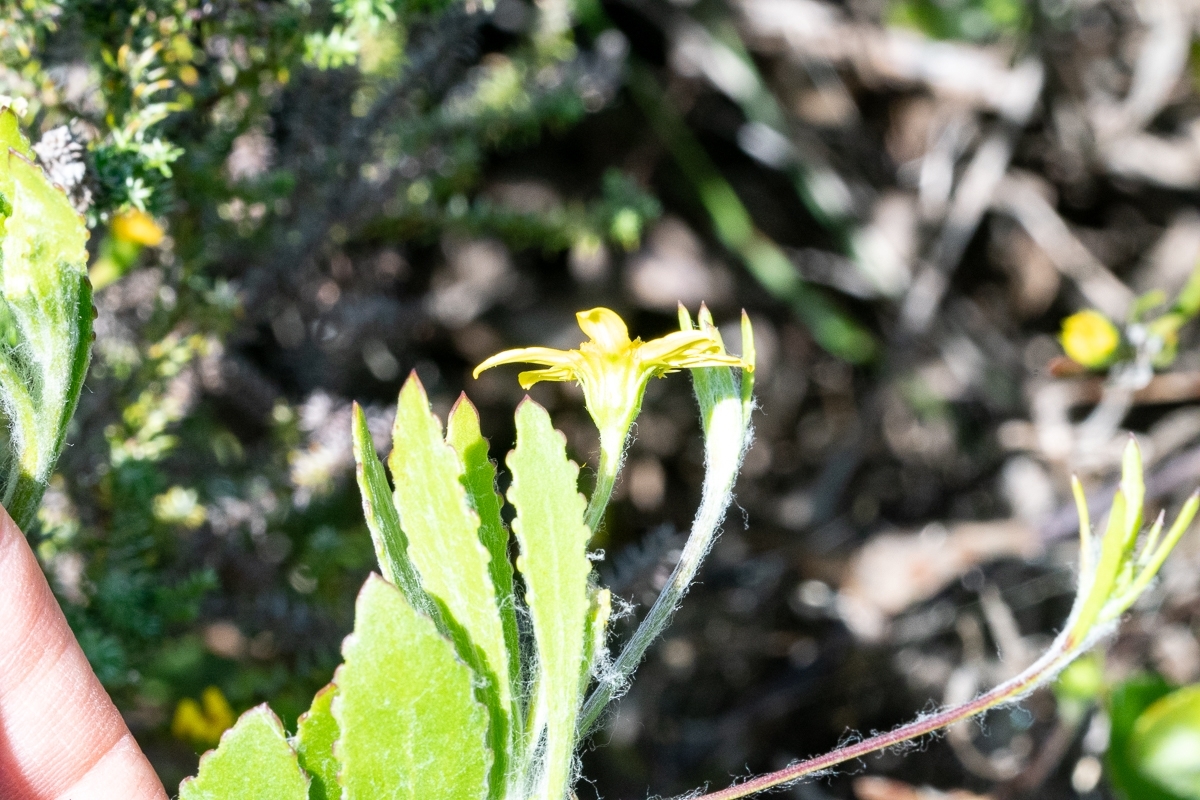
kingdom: Plantae
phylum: Tracheophyta
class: Magnoliopsida
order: Asterales
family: Asteraceae
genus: Osteospermum
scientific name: Osteospermum ciliatum
